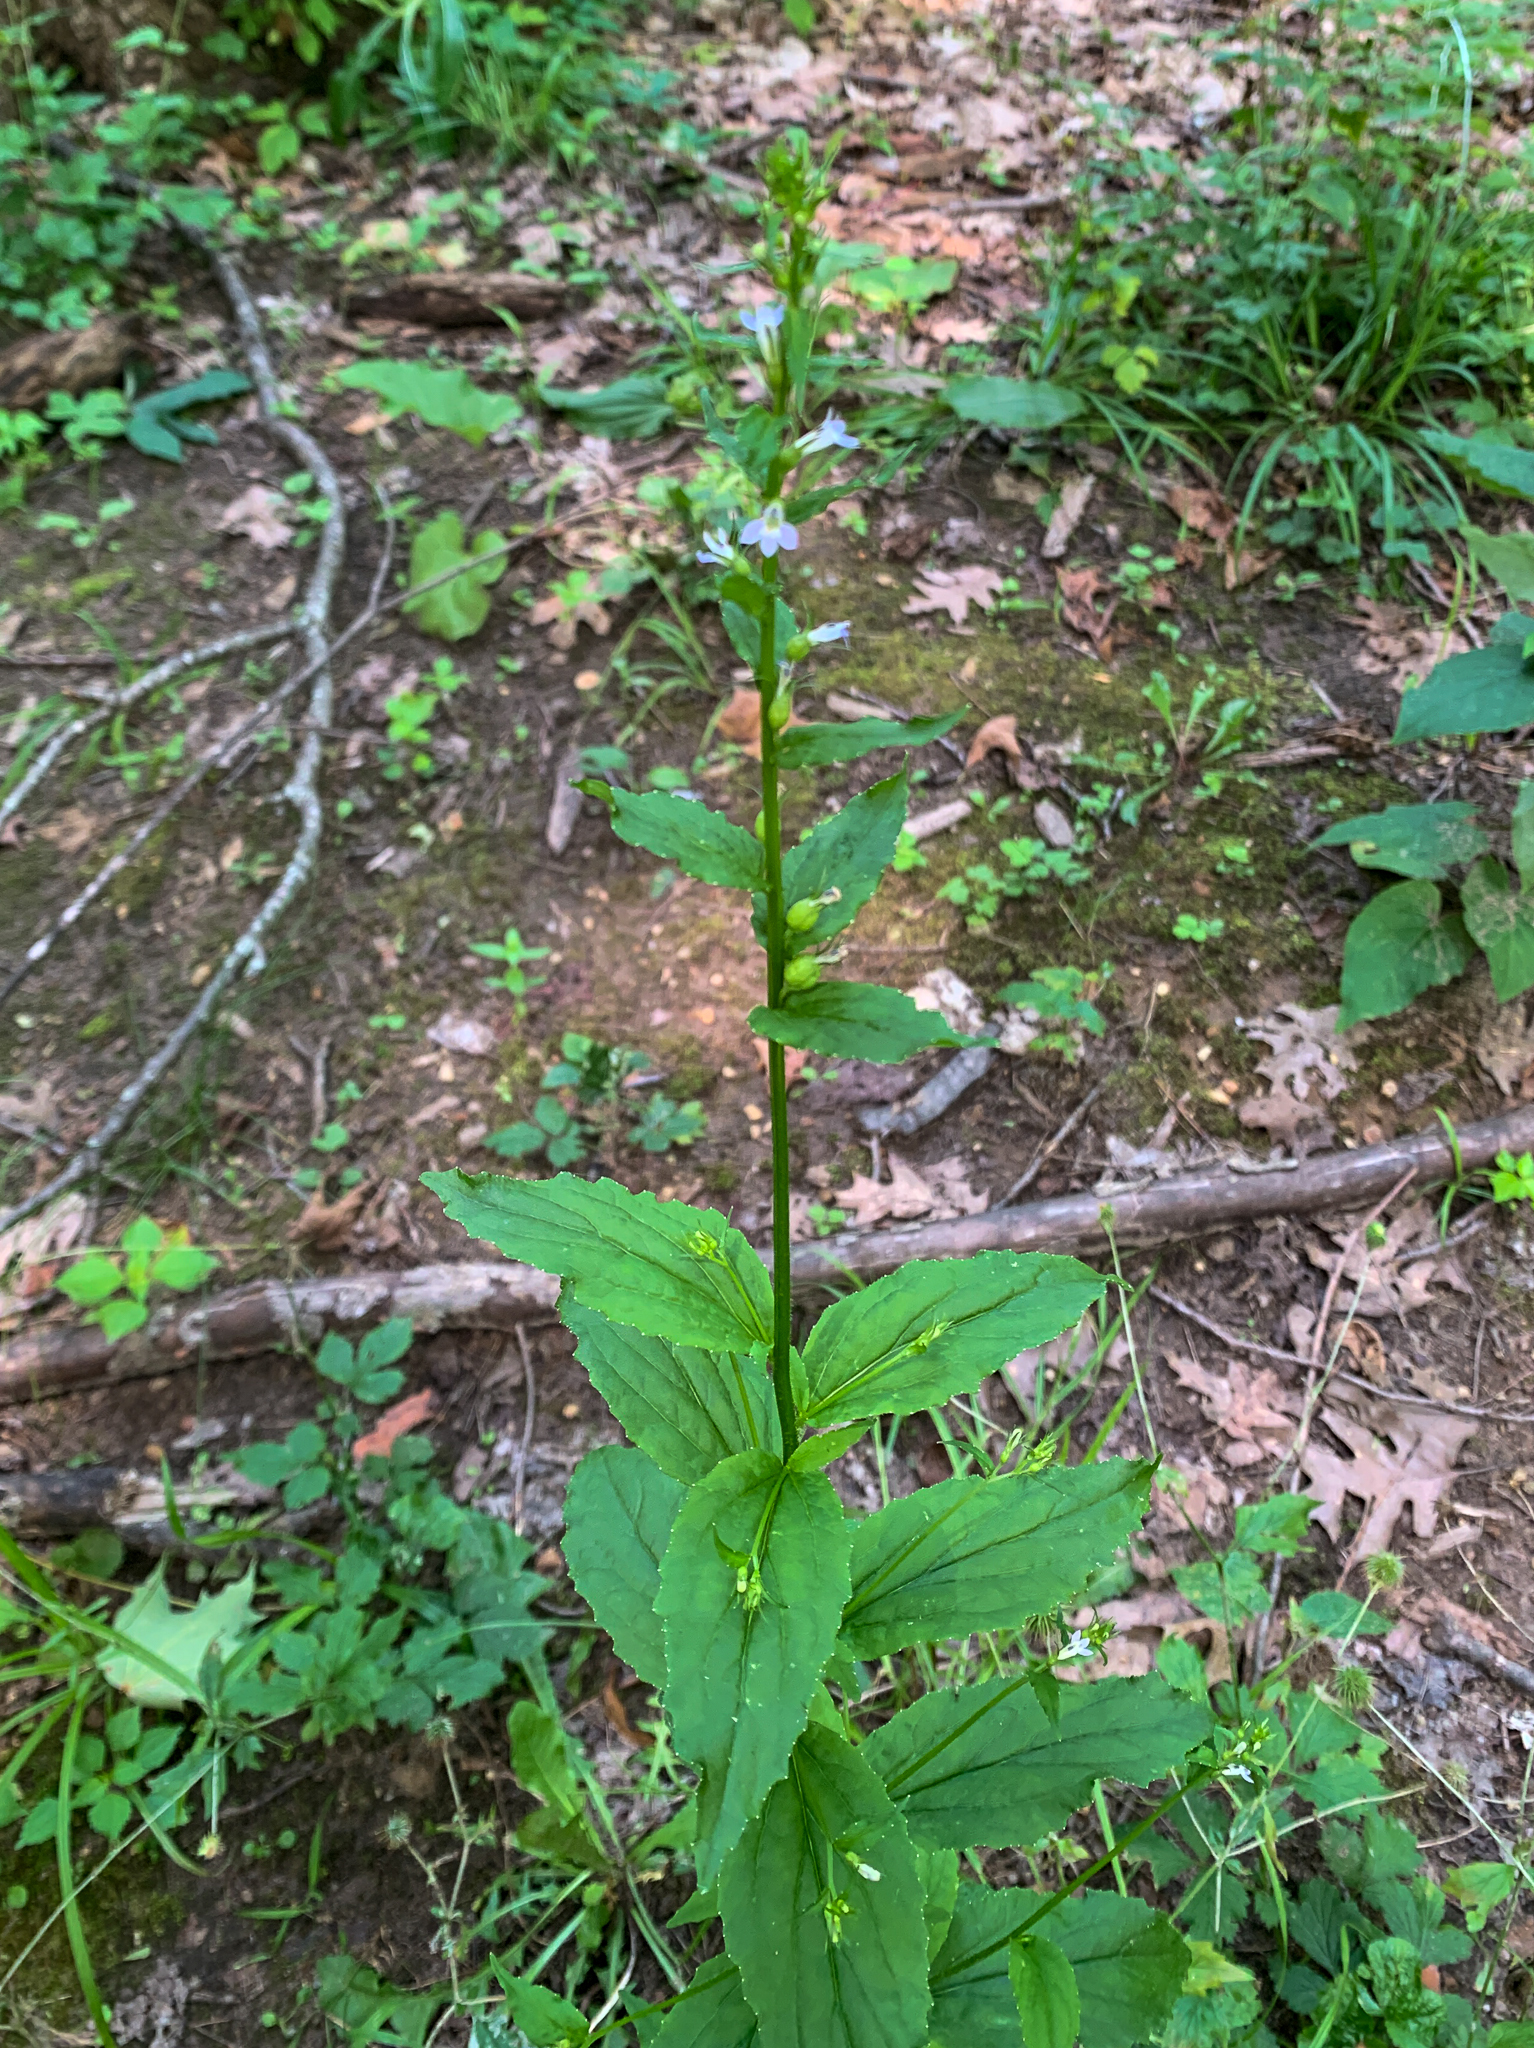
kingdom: Plantae
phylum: Tracheophyta
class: Magnoliopsida
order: Asterales
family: Campanulaceae
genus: Lobelia
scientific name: Lobelia inflata
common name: Indian tobacco
